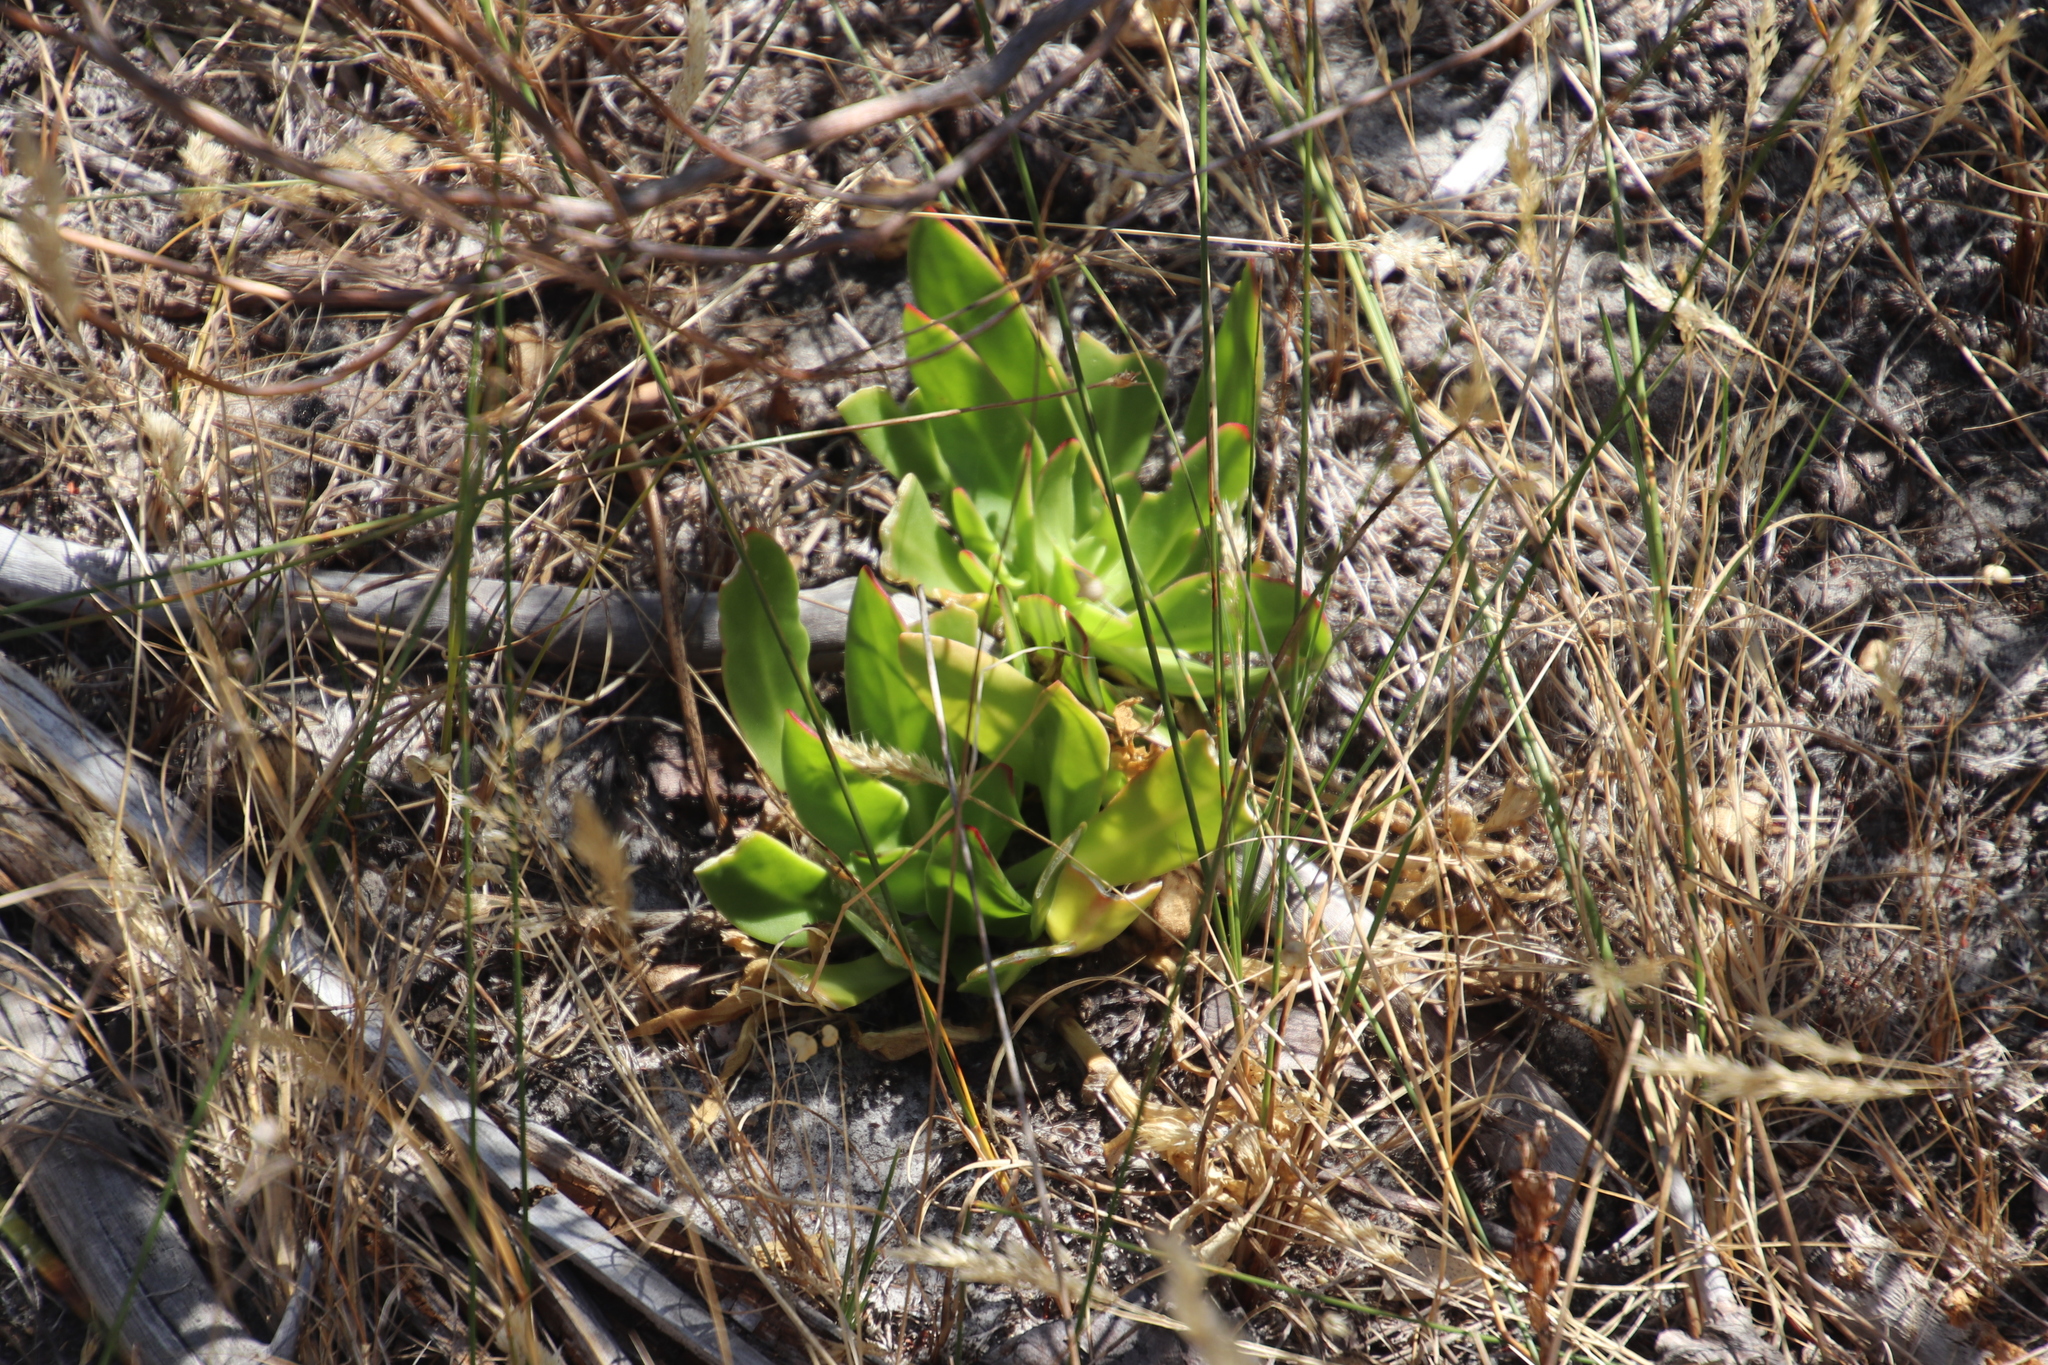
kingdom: Plantae
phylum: Tracheophyta
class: Magnoliopsida
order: Caryophyllales
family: Aizoaceae
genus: Skiatophytum
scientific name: Skiatophytum tripolium
